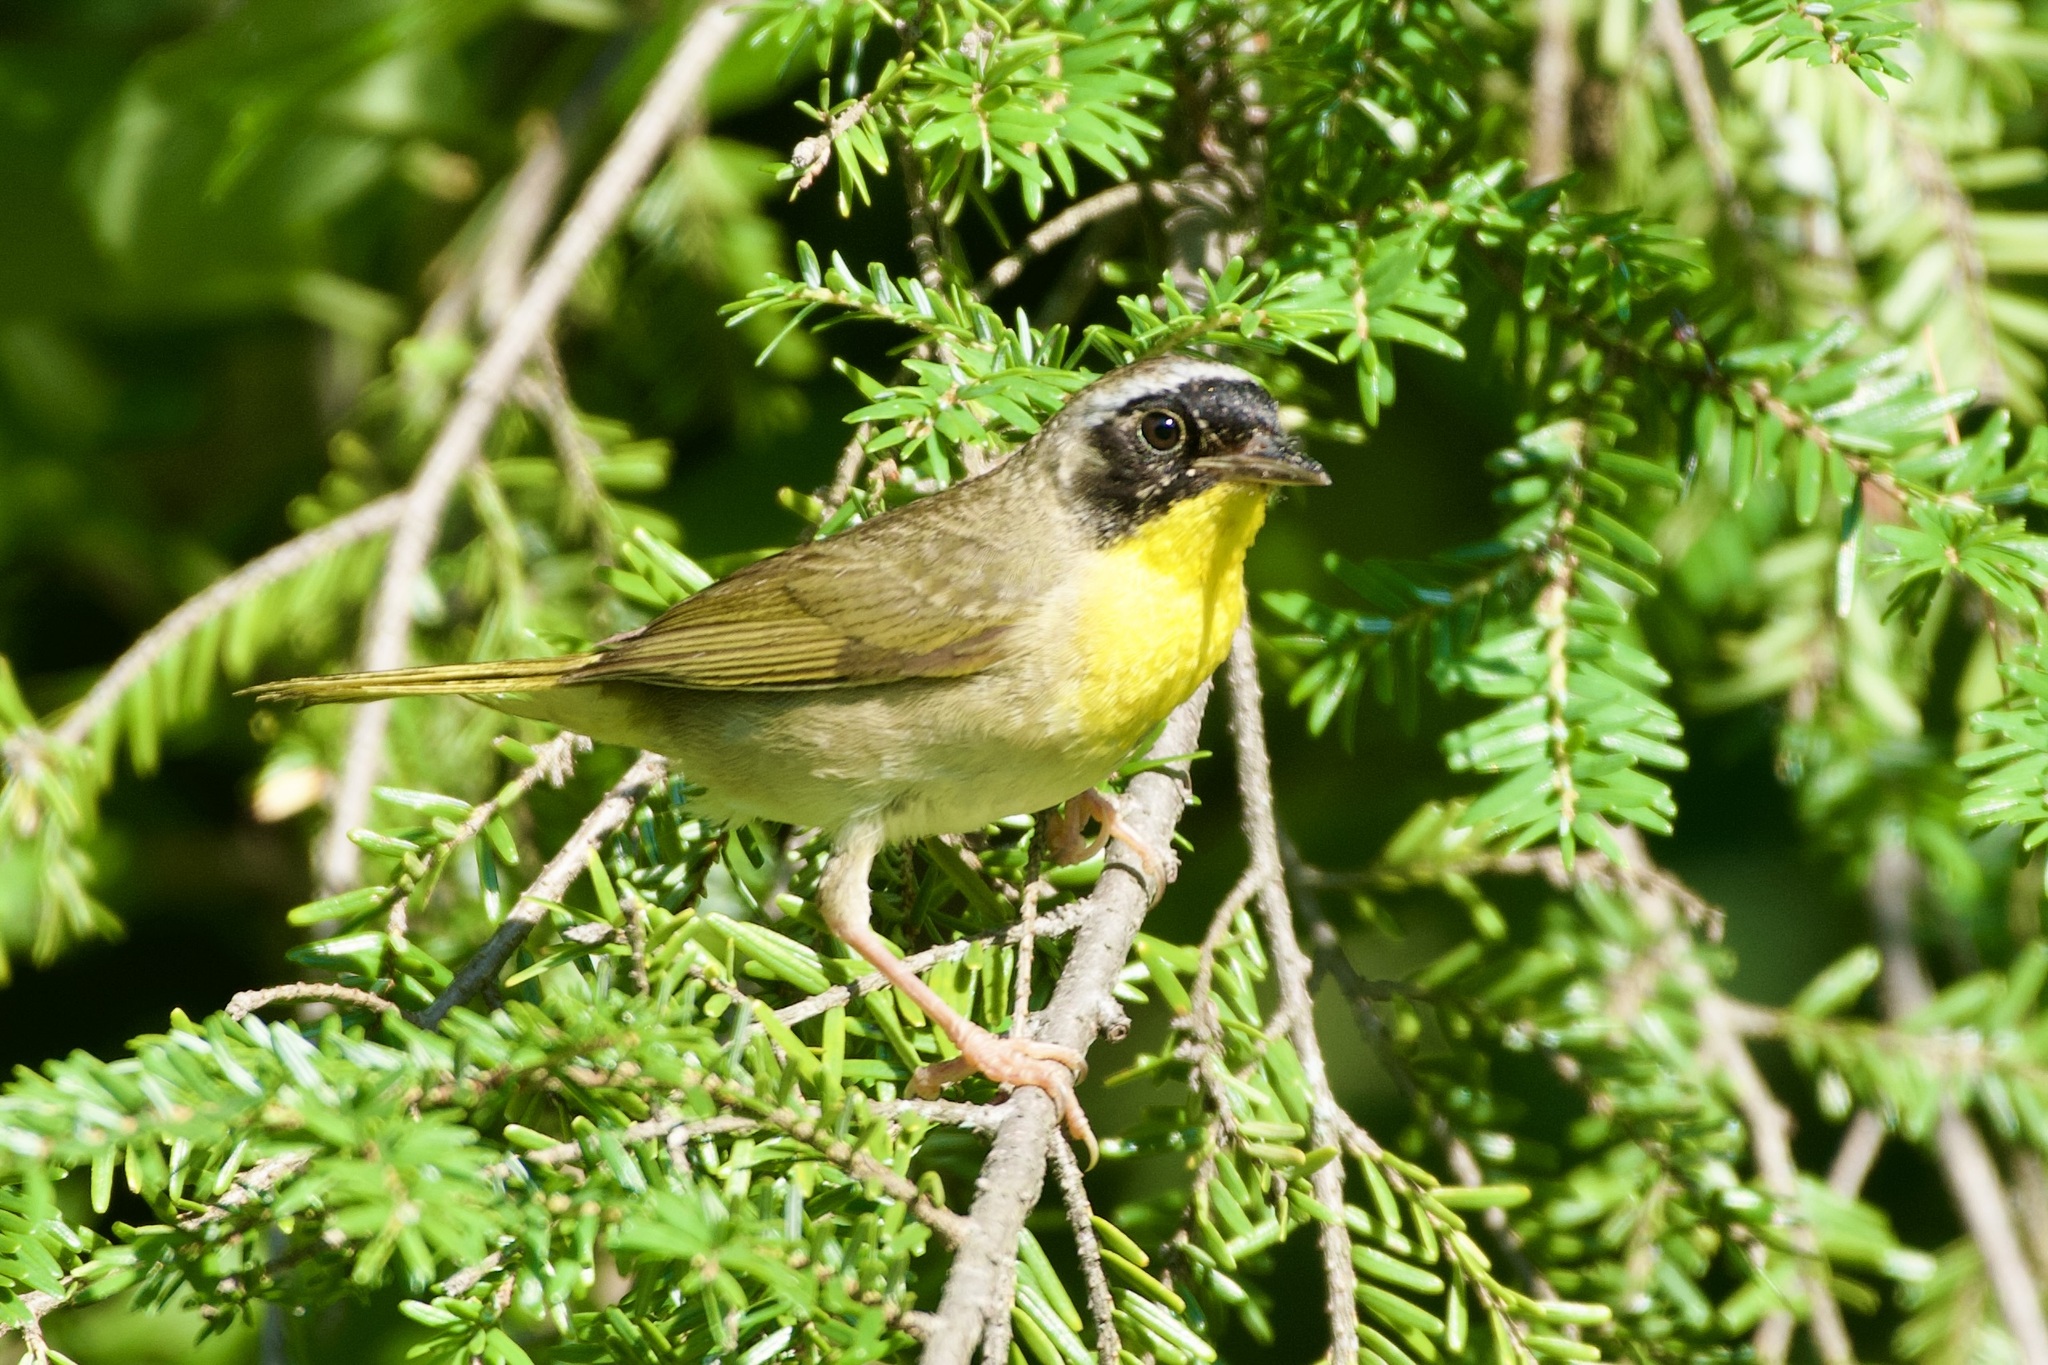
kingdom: Animalia
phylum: Chordata
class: Aves
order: Passeriformes
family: Parulidae
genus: Geothlypis
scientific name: Geothlypis trichas
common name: Common yellowthroat
